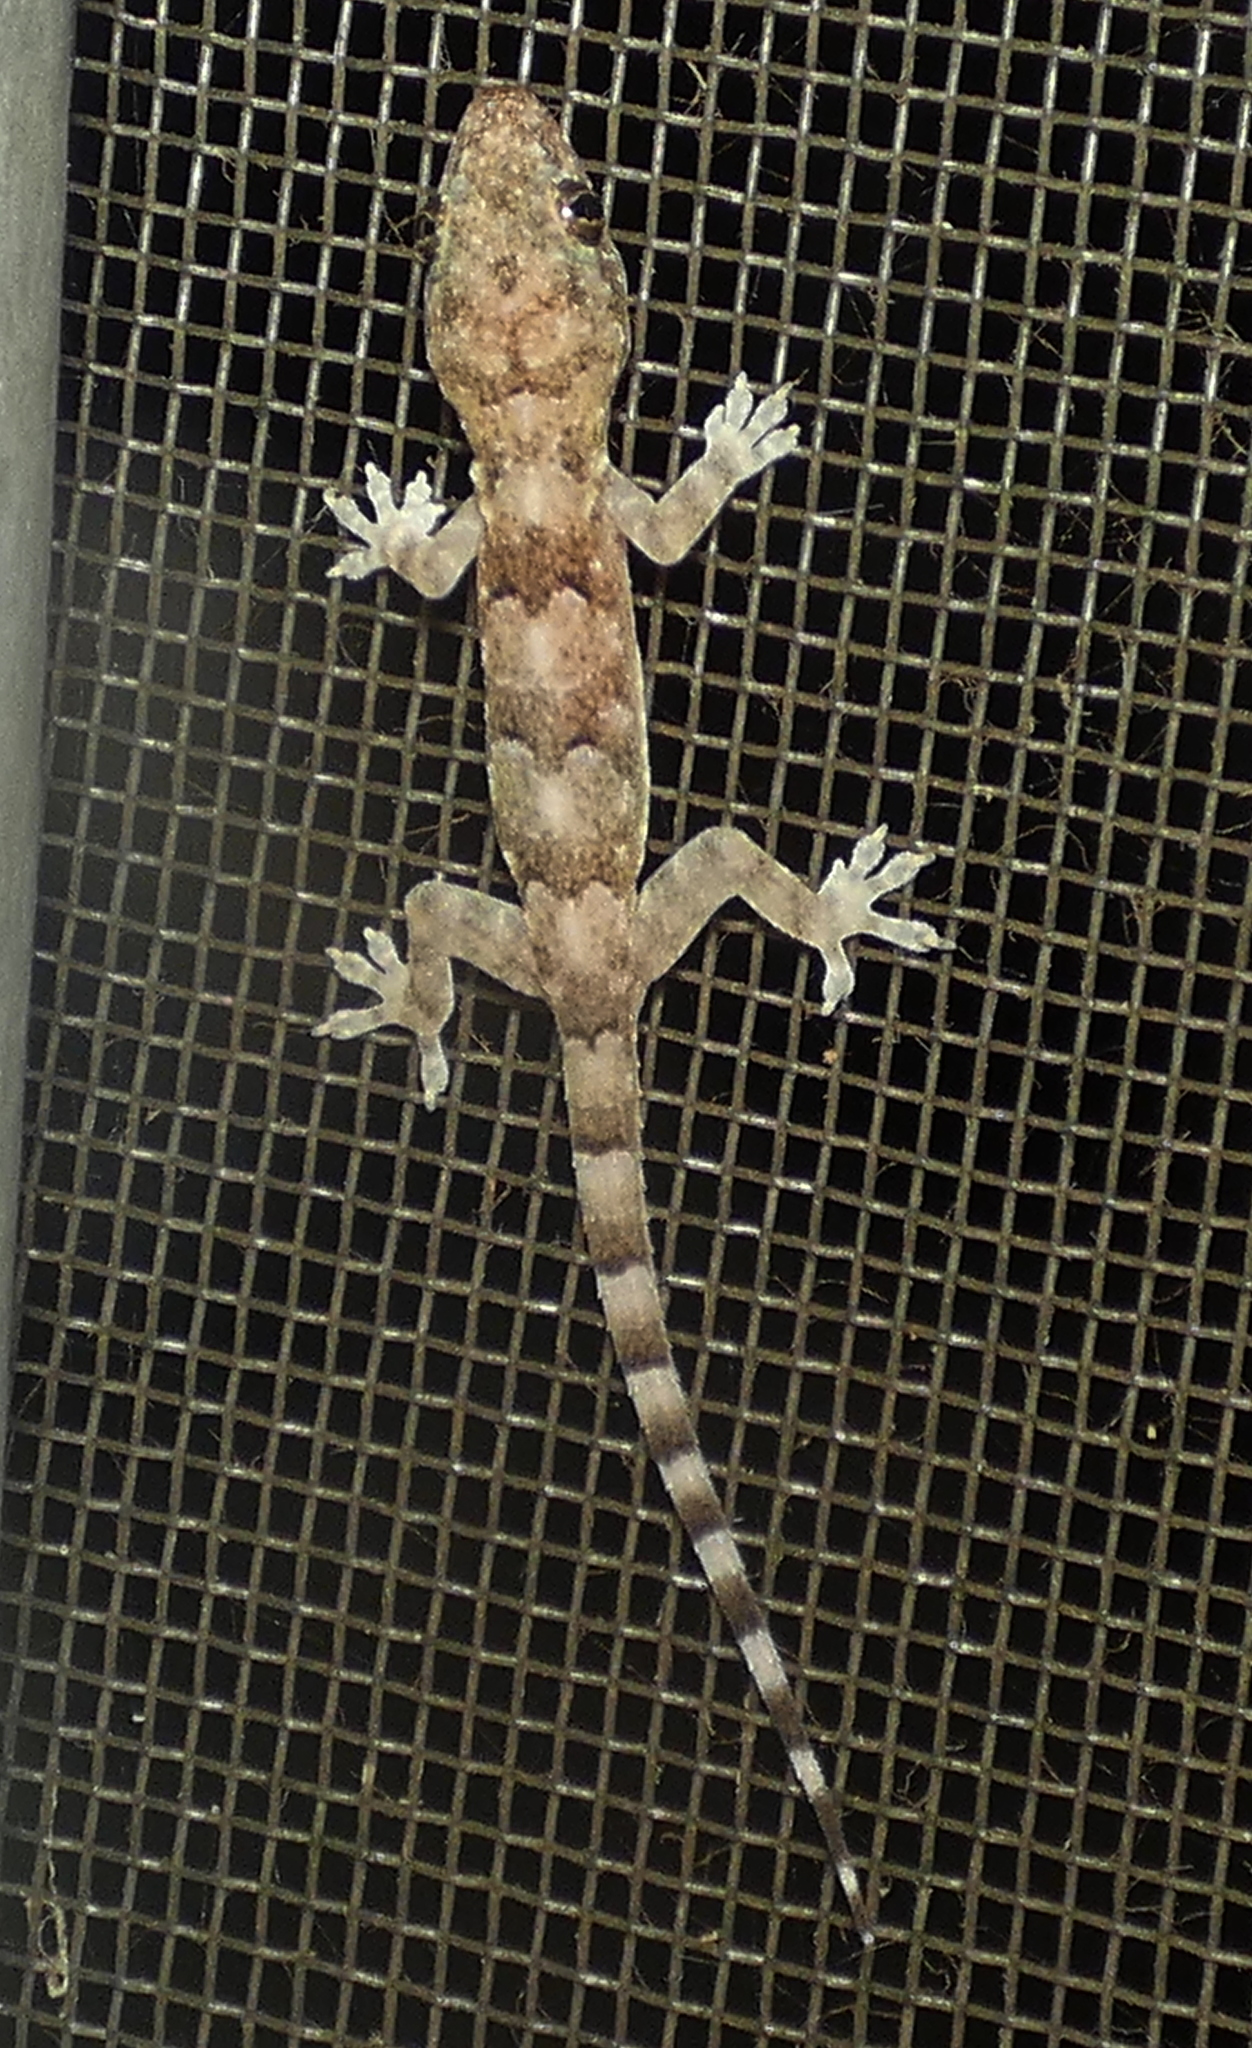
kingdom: Animalia
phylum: Chordata
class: Squamata
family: Gekkonidae
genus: Hemidactylus
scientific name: Hemidactylus mabouia
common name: House gecko
